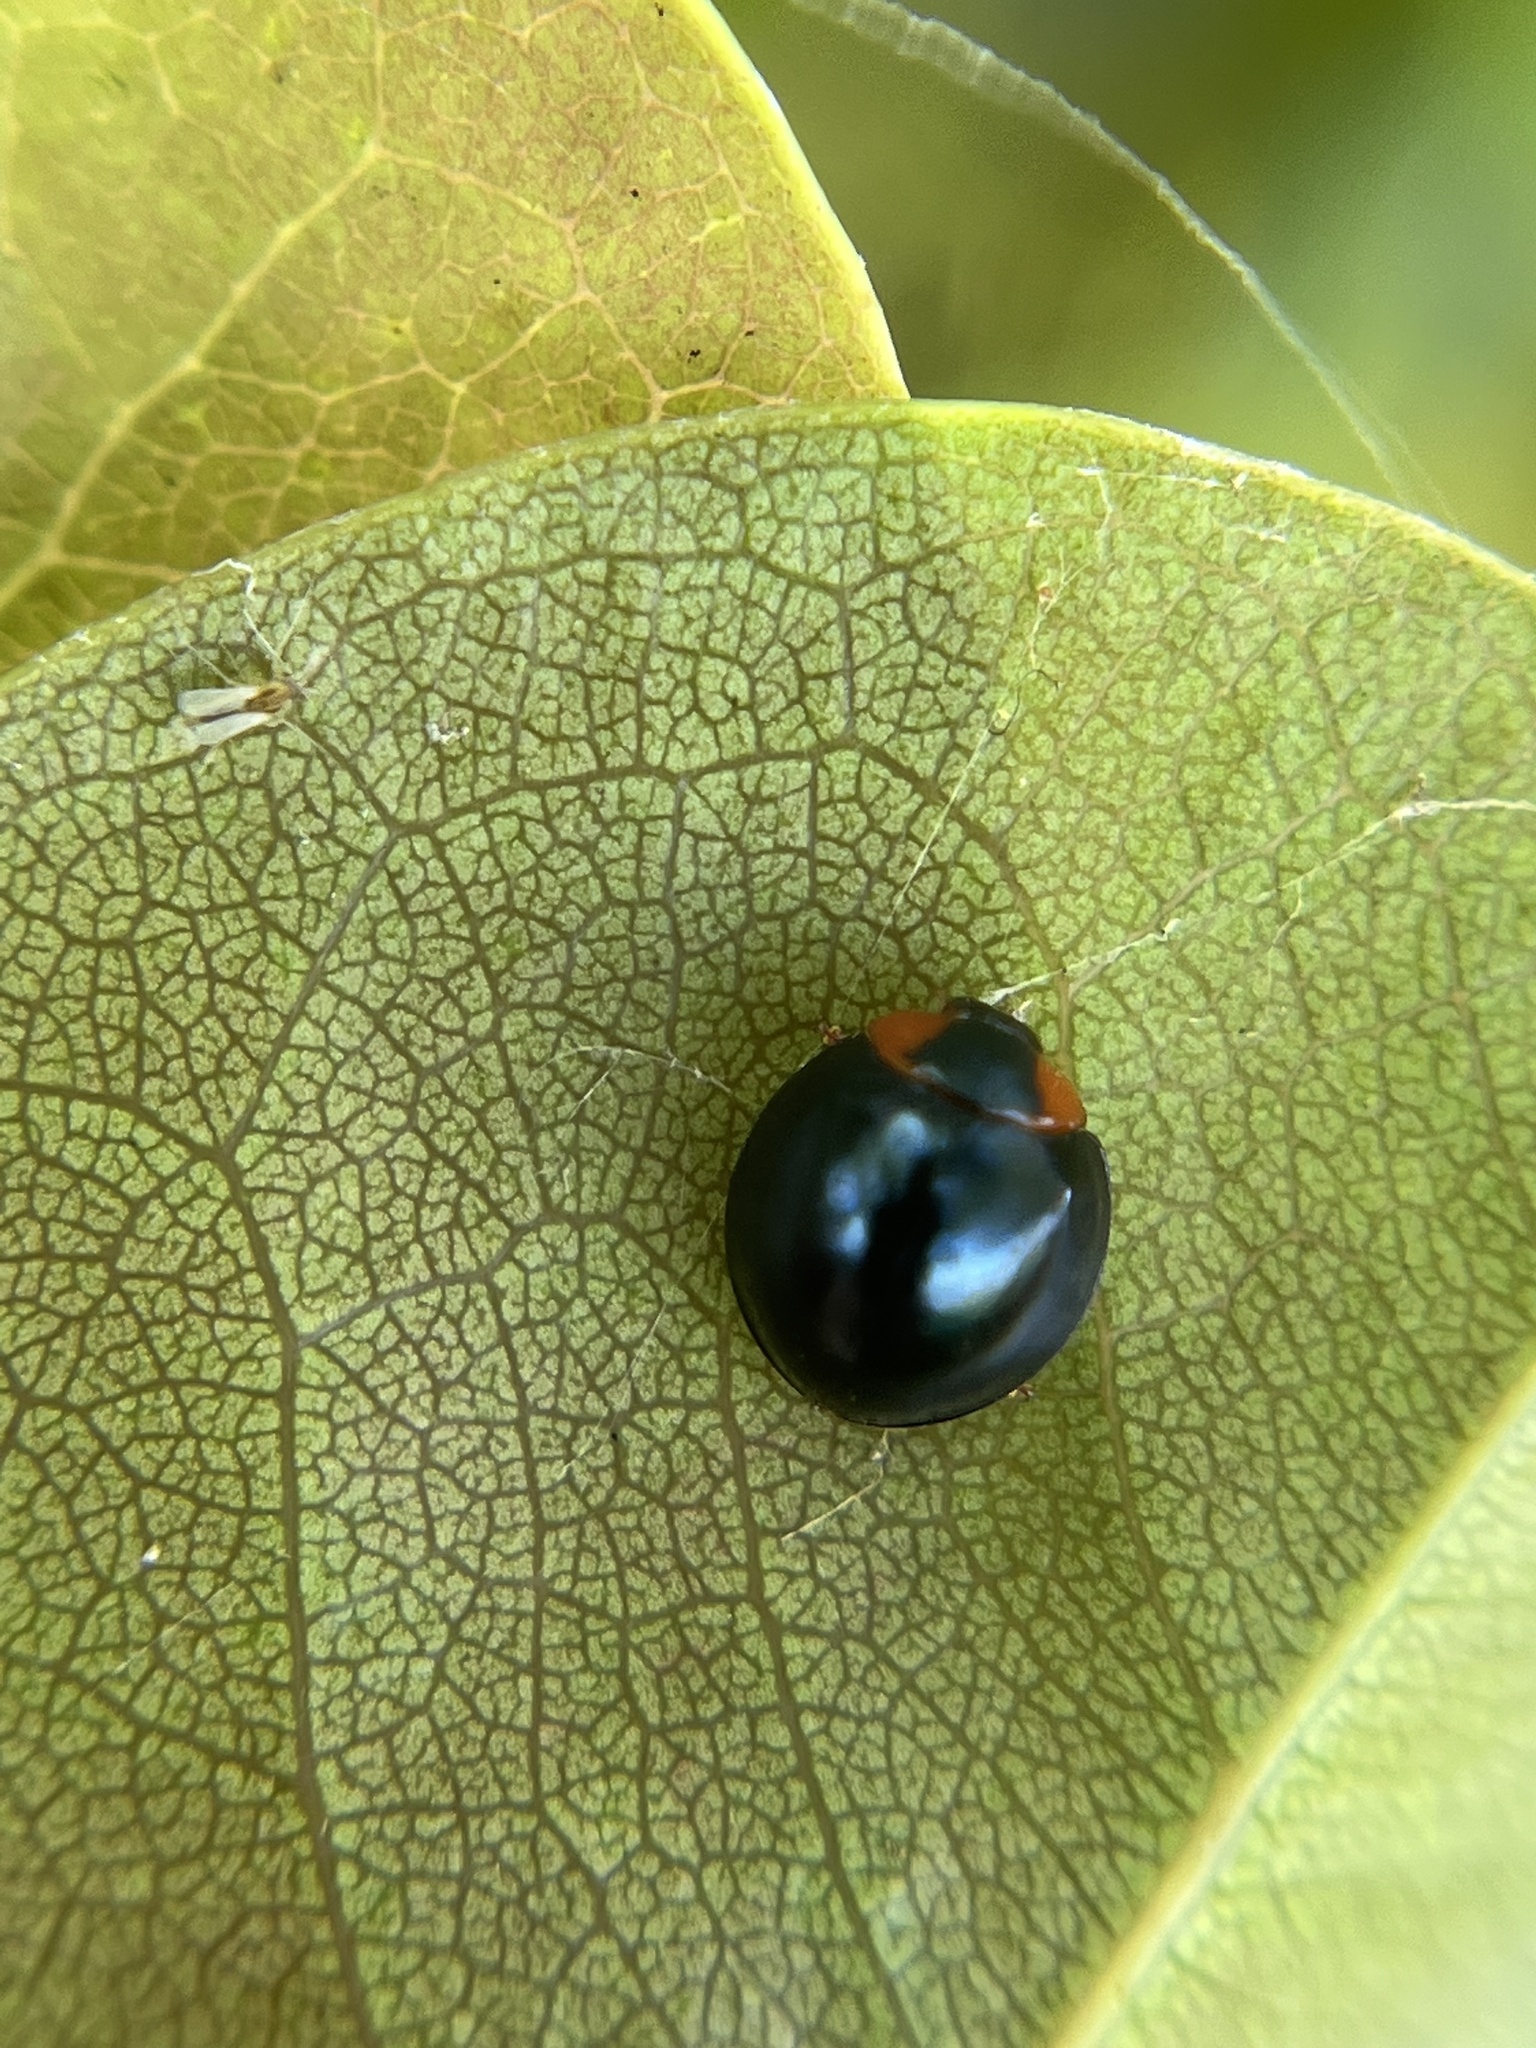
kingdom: Animalia
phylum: Arthropoda
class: Insecta
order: Coleoptera
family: Coccinellidae
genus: Curinus
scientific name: Curinus coeruleus
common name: Ladybird beetle
